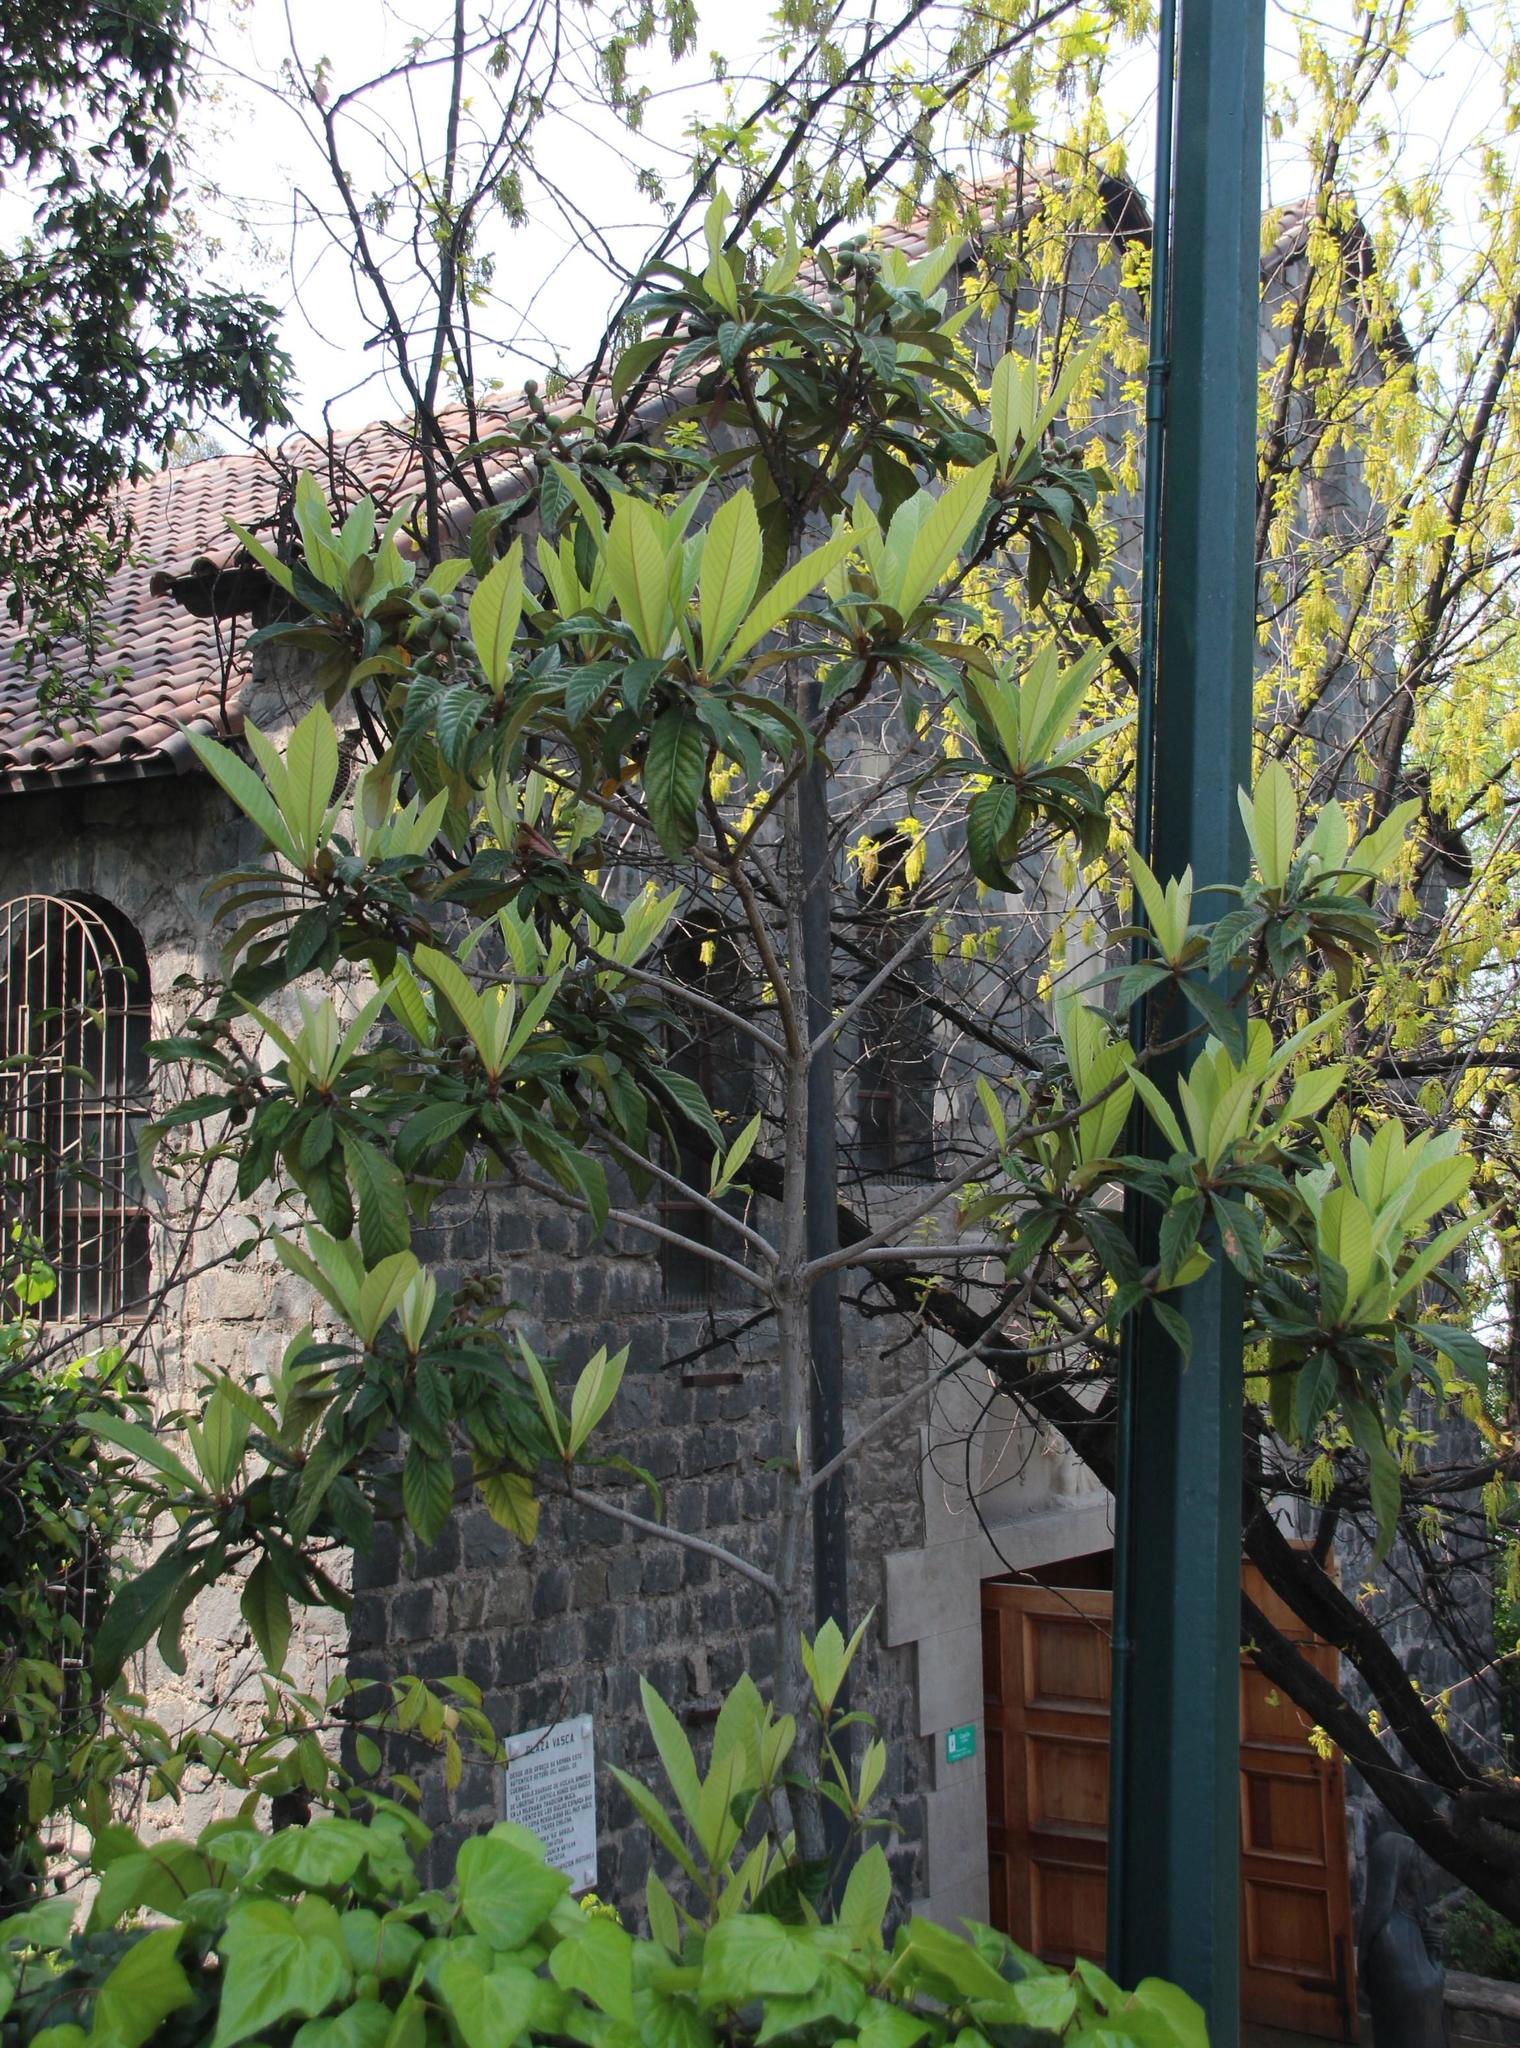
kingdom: Plantae
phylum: Tracheophyta
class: Magnoliopsida
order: Rosales
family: Rosaceae
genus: Rhaphiolepis
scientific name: Rhaphiolepis bibas
